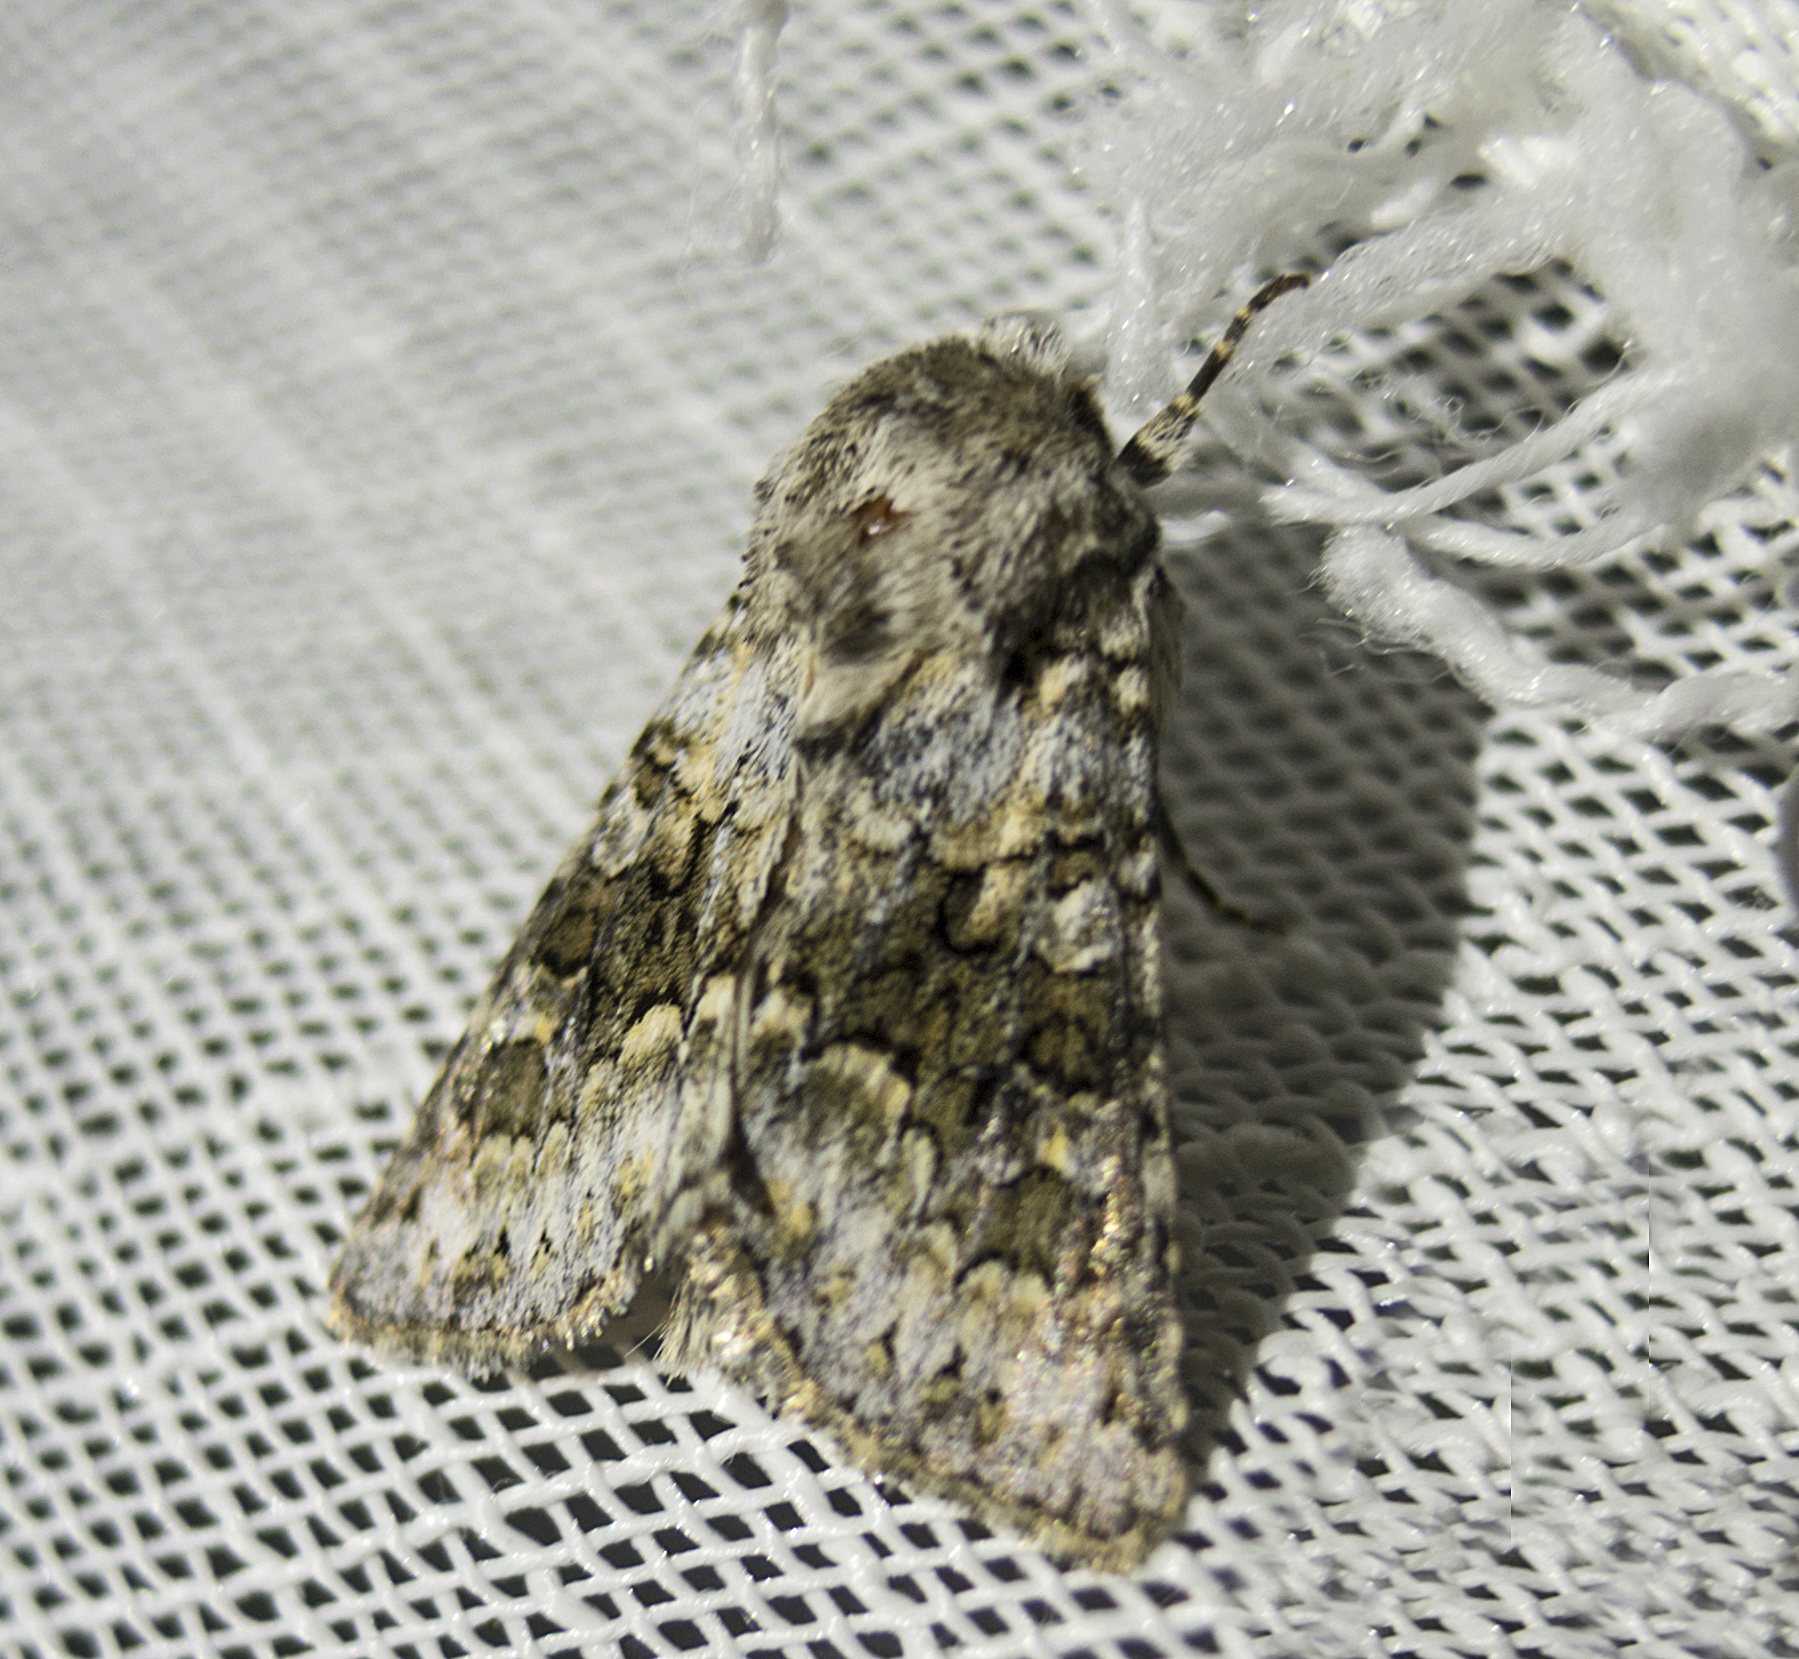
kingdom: Animalia
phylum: Arthropoda
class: Insecta
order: Lepidoptera
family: Noctuidae
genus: Hecatera
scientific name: Hecatera bicolorata
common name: Broad-barred white
